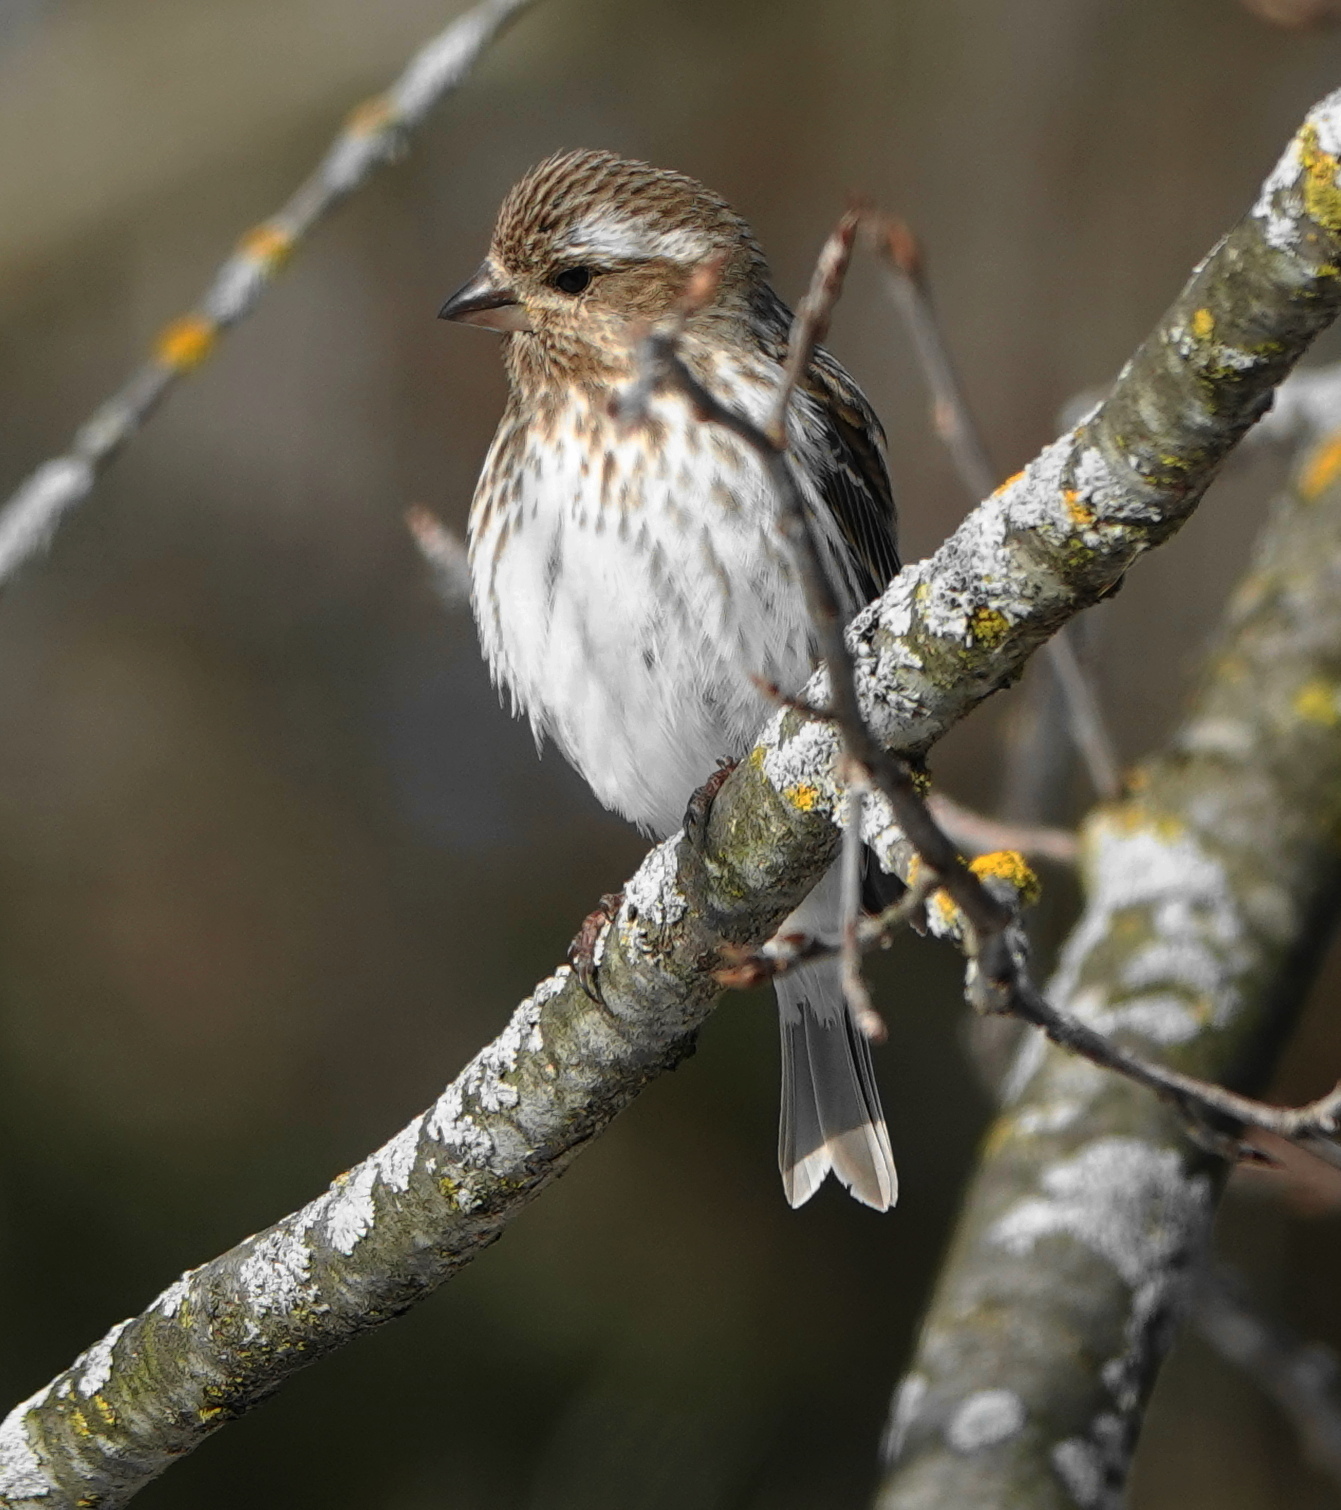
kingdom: Animalia
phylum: Chordata
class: Aves
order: Passeriformes
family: Fringillidae
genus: Haemorhous
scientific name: Haemorhous purpureus
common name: Purple finch
